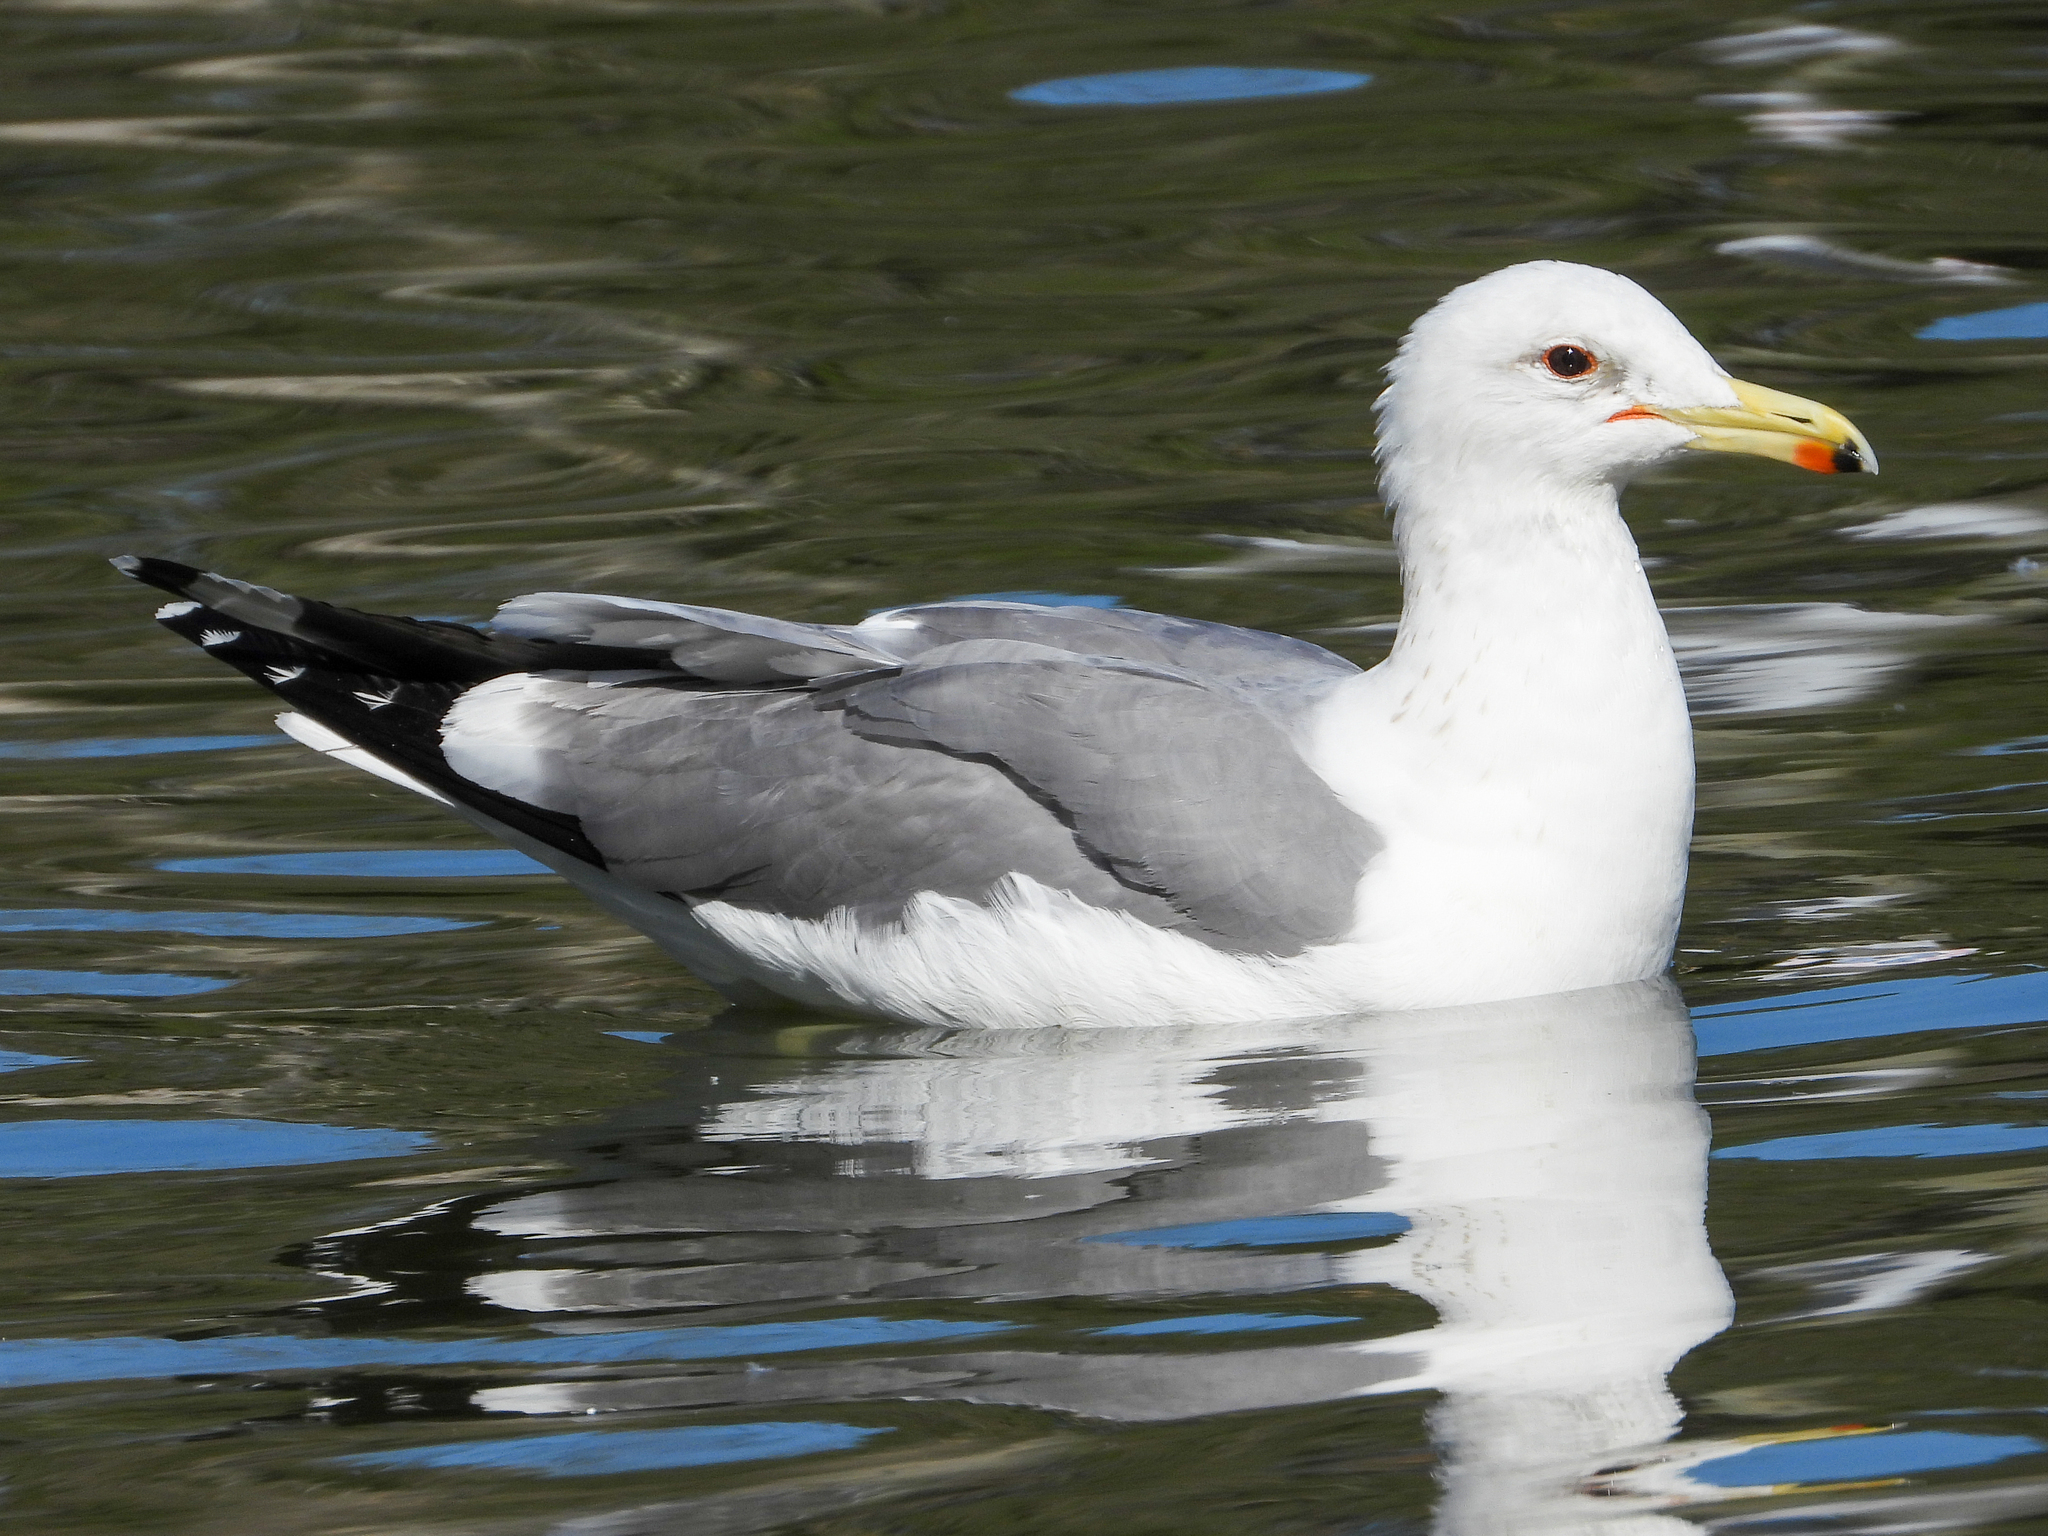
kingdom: Animalia
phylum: Chordata
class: Aves
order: Charadriiformes
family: Laridae
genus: Larus
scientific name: Larus californicus
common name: California gull
